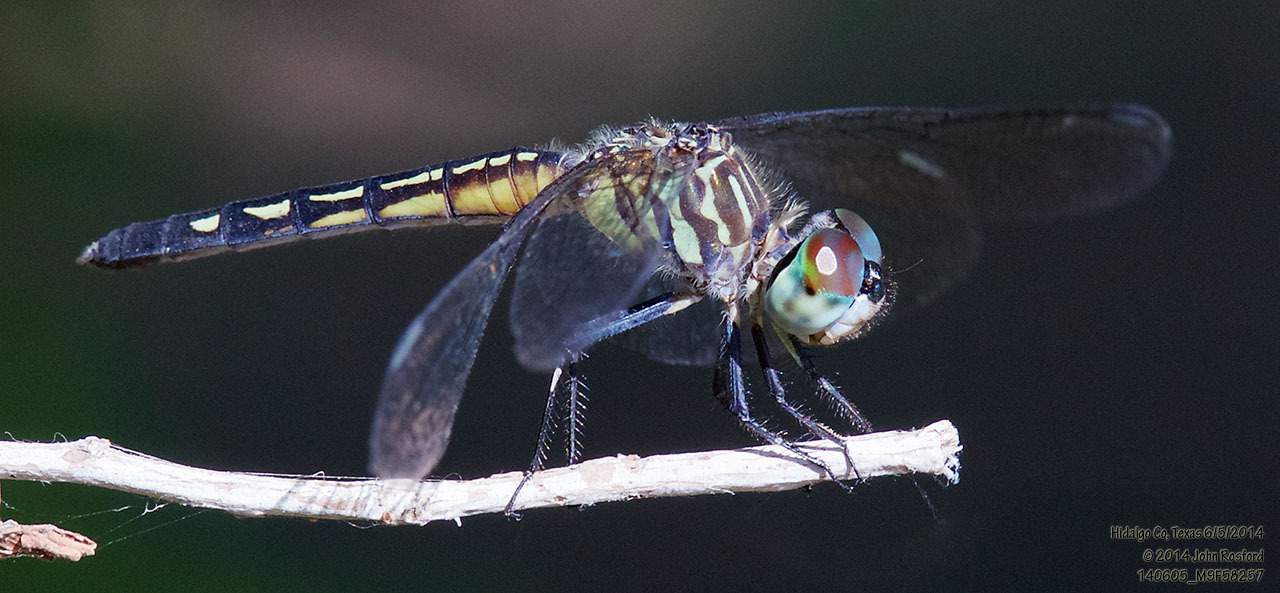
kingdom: Animalia
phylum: Arthropoda
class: Insecta
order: Odonata
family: Libellulidae
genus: Pachydiplax
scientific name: Pachydiplax longipennis
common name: Blue dasher
